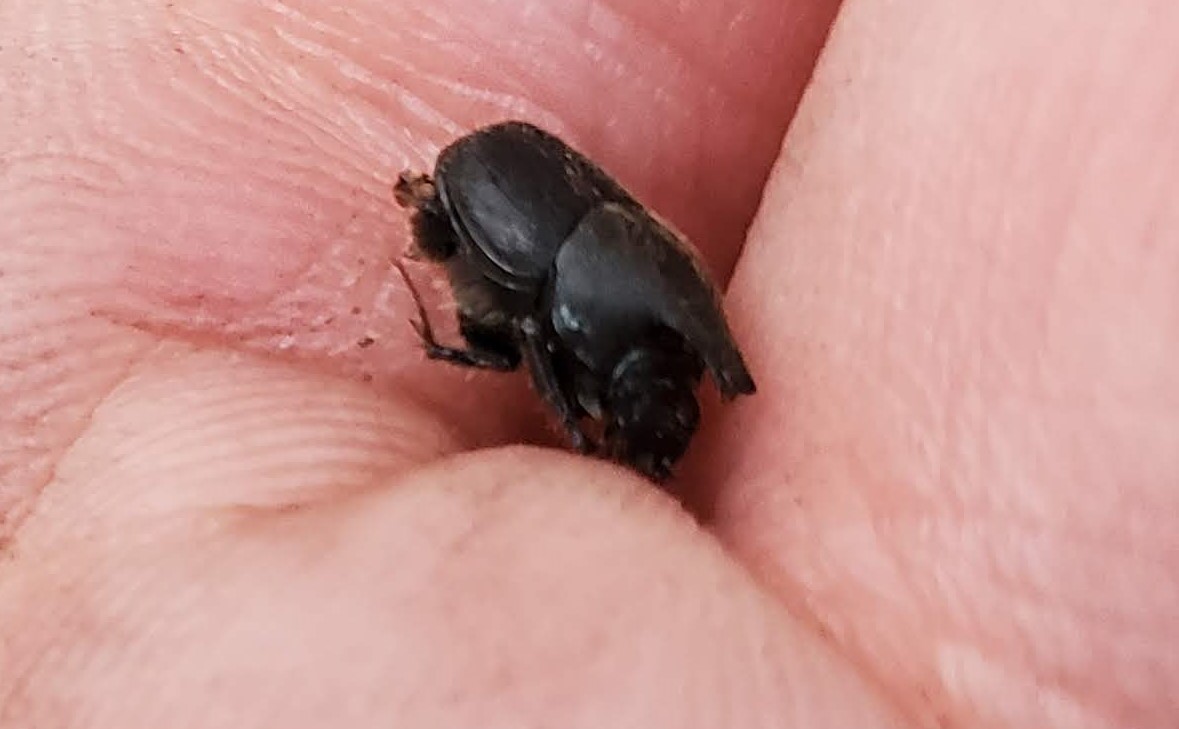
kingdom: Animalia
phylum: Arthropoda
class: Insecta
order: Coleoptera
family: Scarabaeidae
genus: Onthophagus
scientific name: Onthophagus hecate
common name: Scooped scarab
